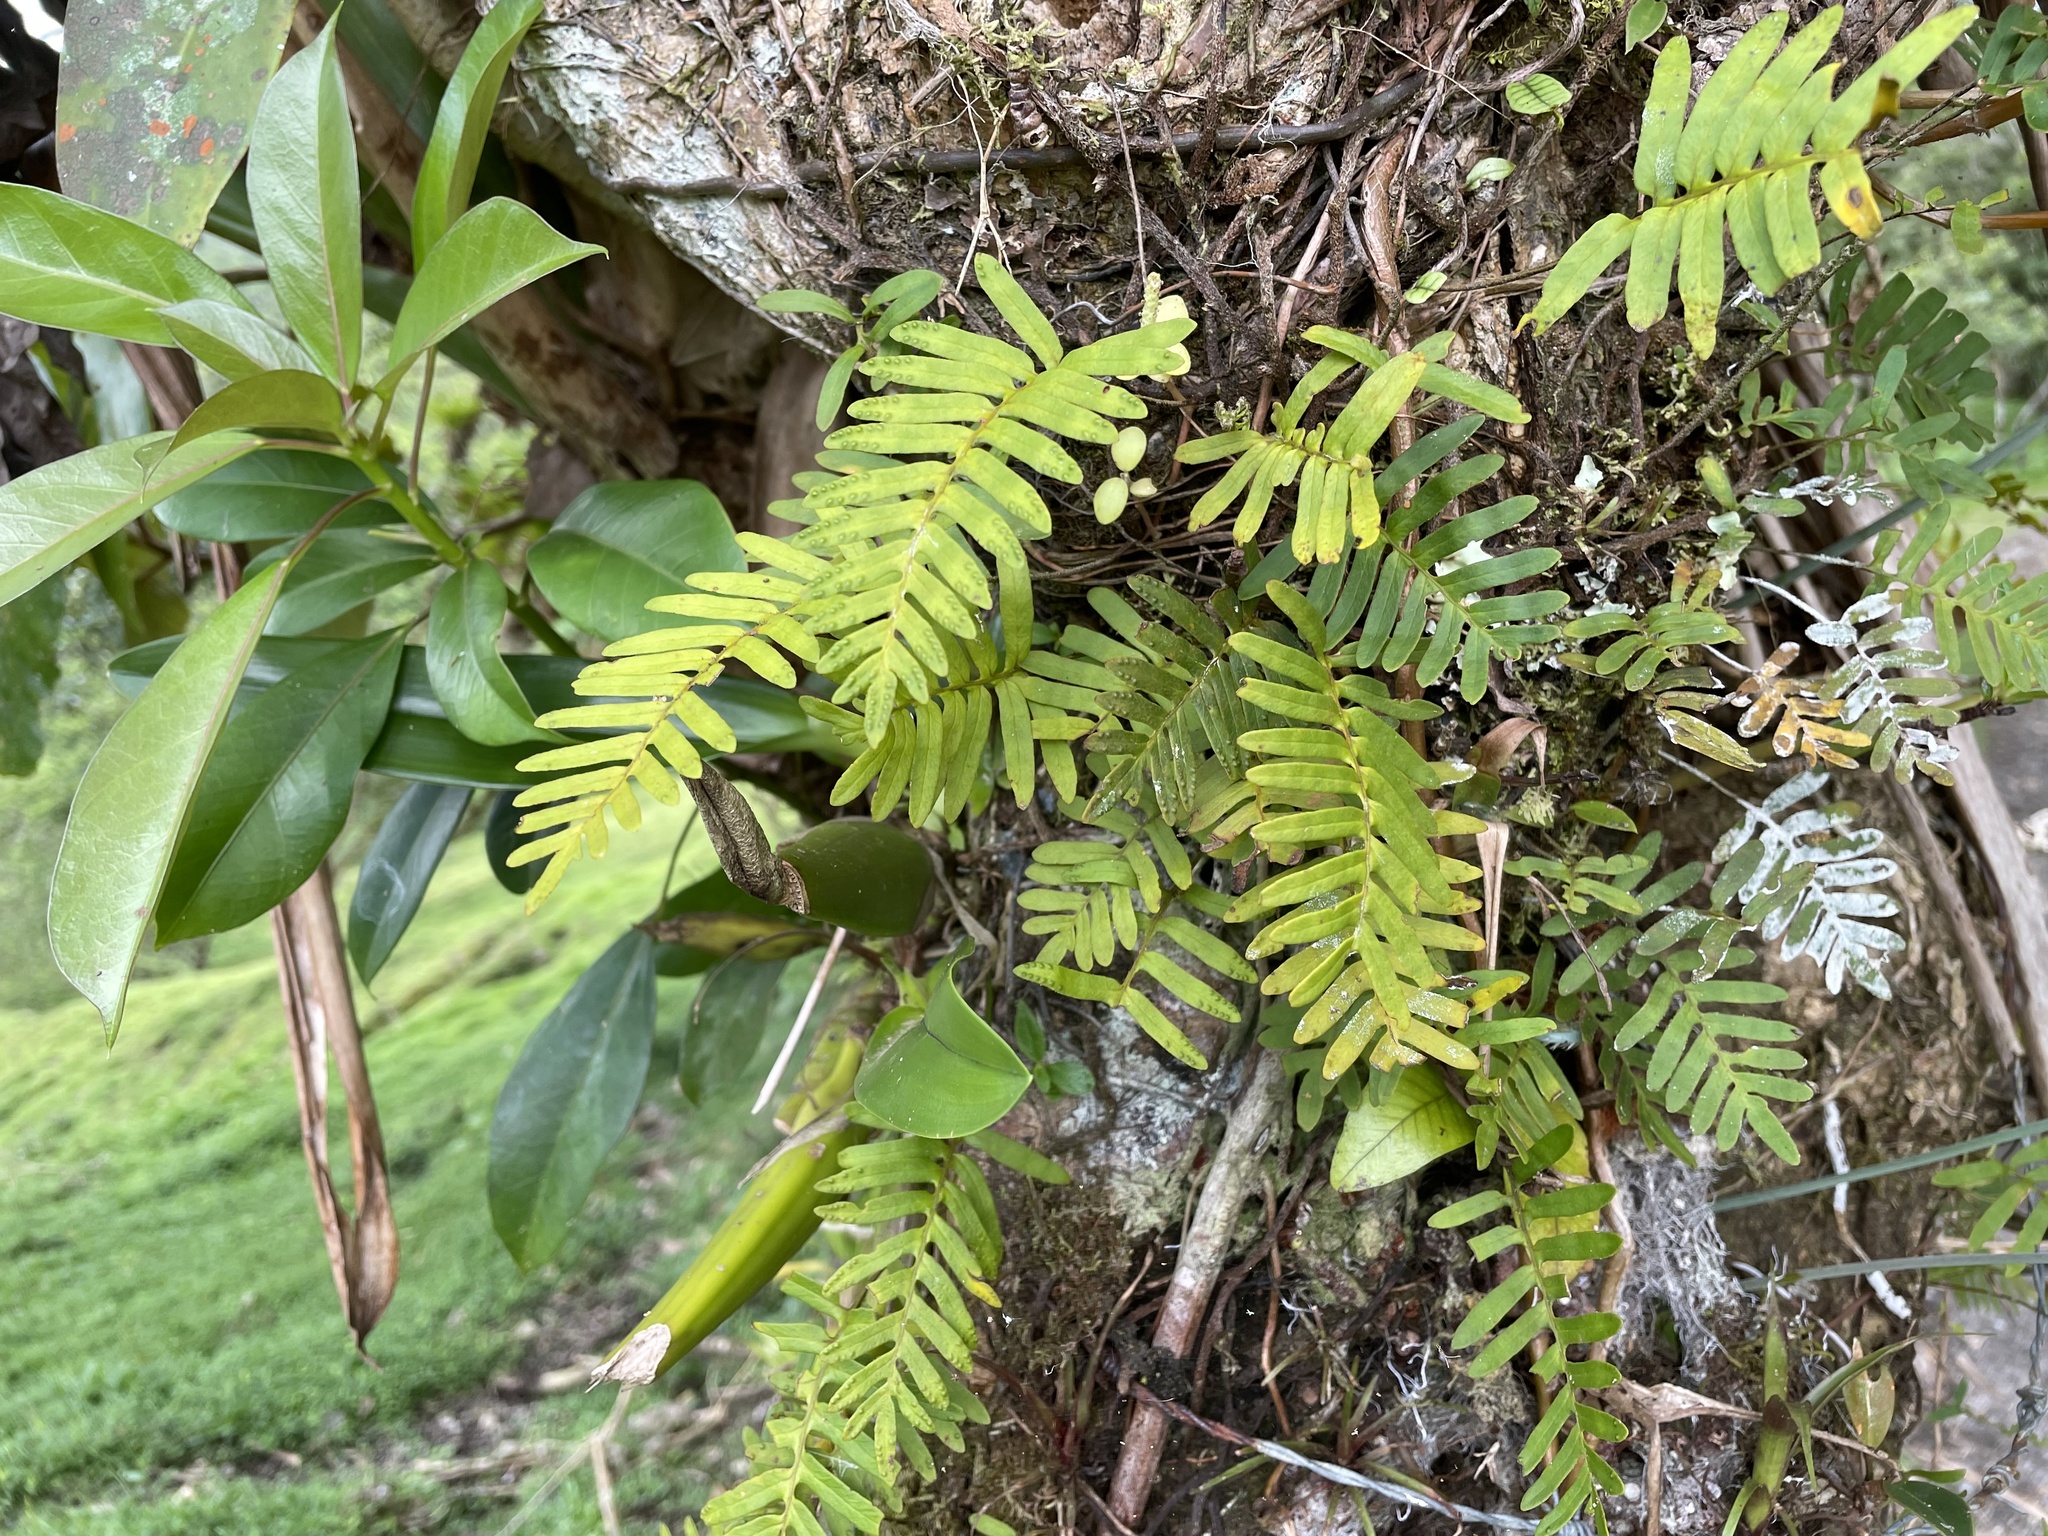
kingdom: Plantae
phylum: Tracheophyta
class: Polypodiopsida
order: Polypodiales
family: Polypodiaceae
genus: Pleopeltis
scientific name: Pleopeltis polypodioides
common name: Resurrection fern
